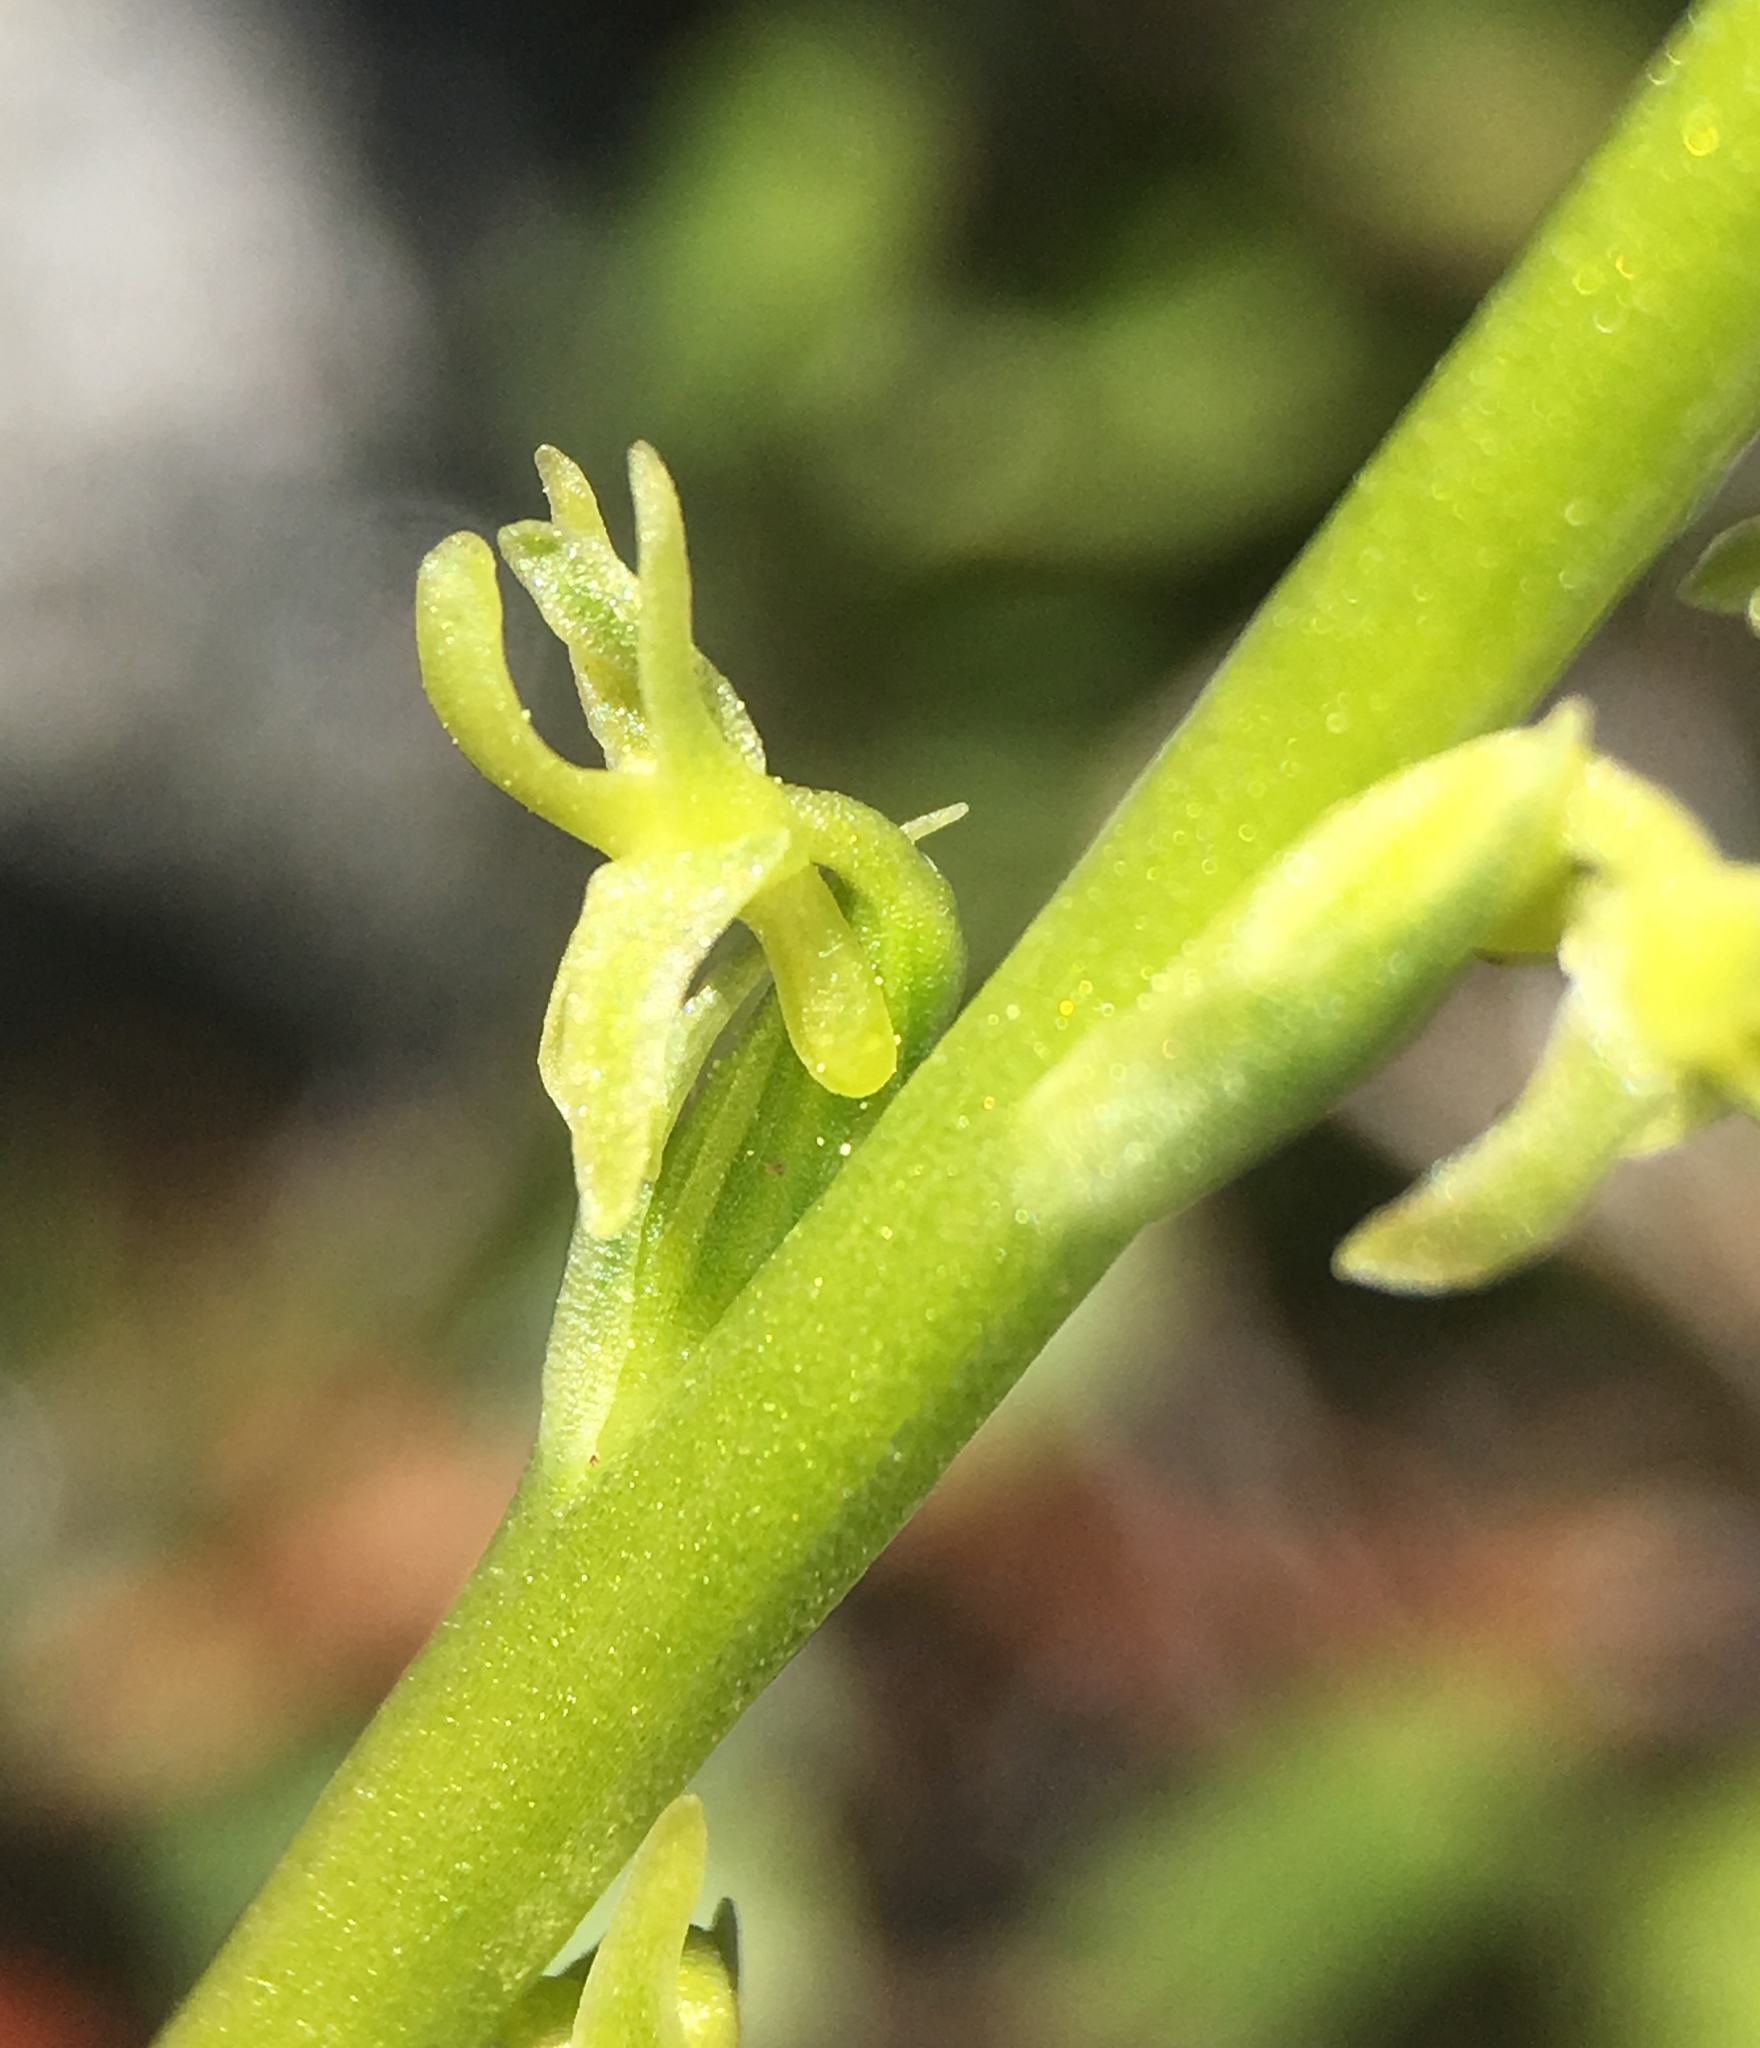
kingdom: Plantae
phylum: Tracheophyta
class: Liliopsida
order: Asparagales
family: Orchidaceae
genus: Platanthera
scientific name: Platanthera colemanii
